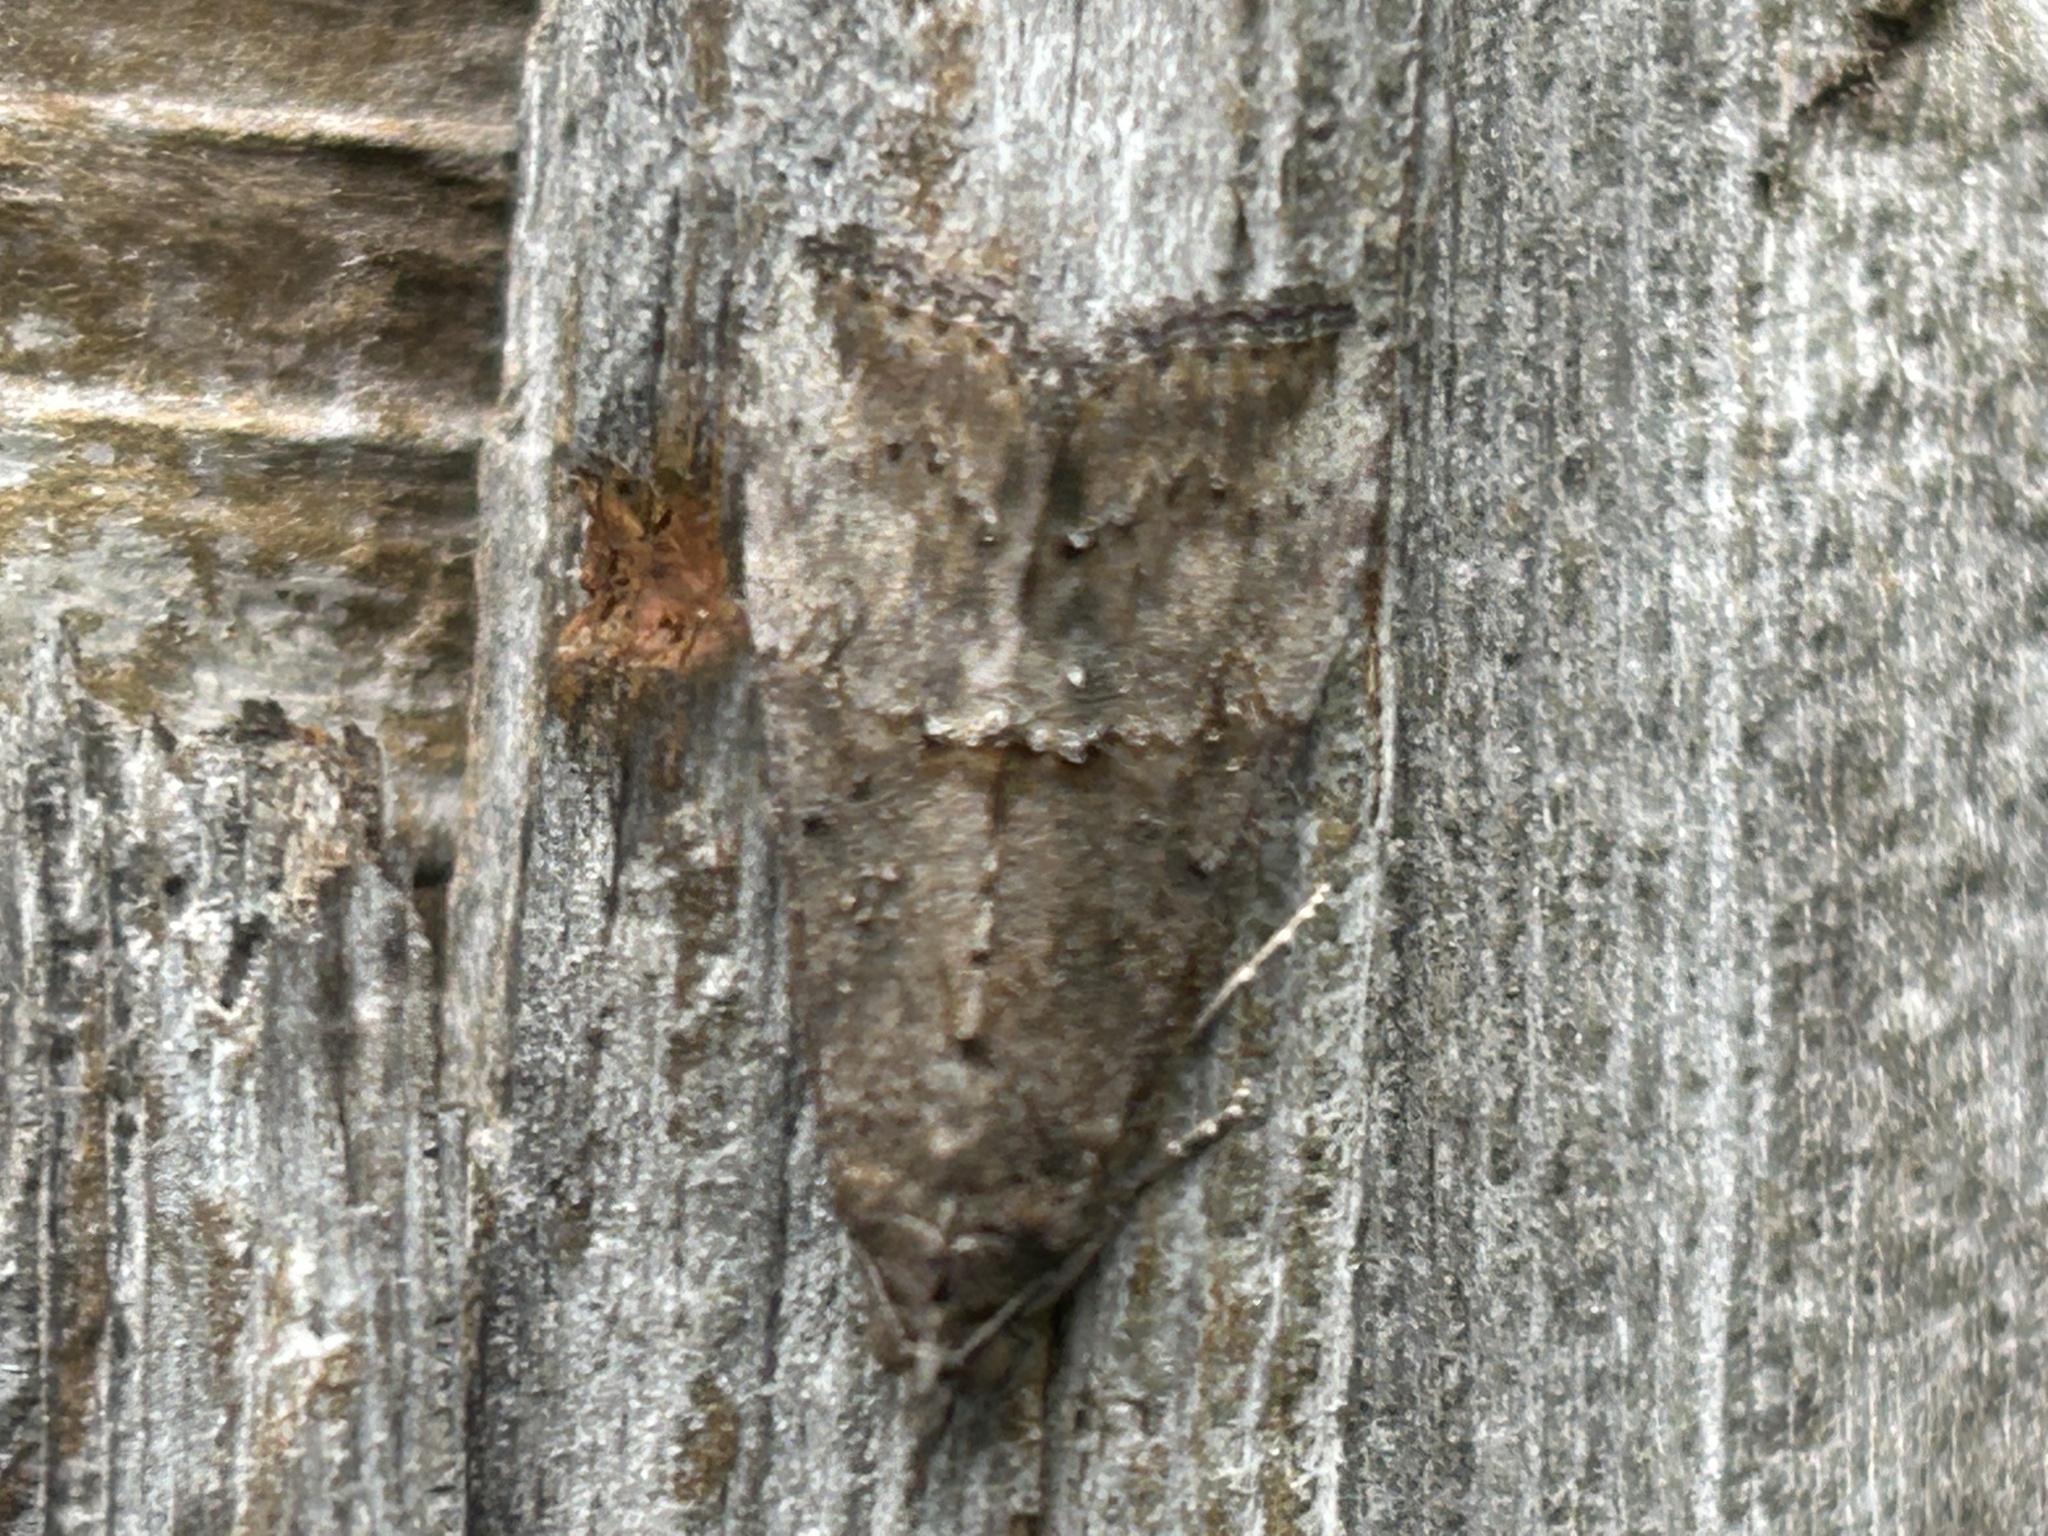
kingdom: Animalia
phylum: Arthropoda
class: Insecta
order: Lepidoptera
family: Erebidae
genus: Hypena
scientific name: Hypena scabra
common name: Green cloverworm
